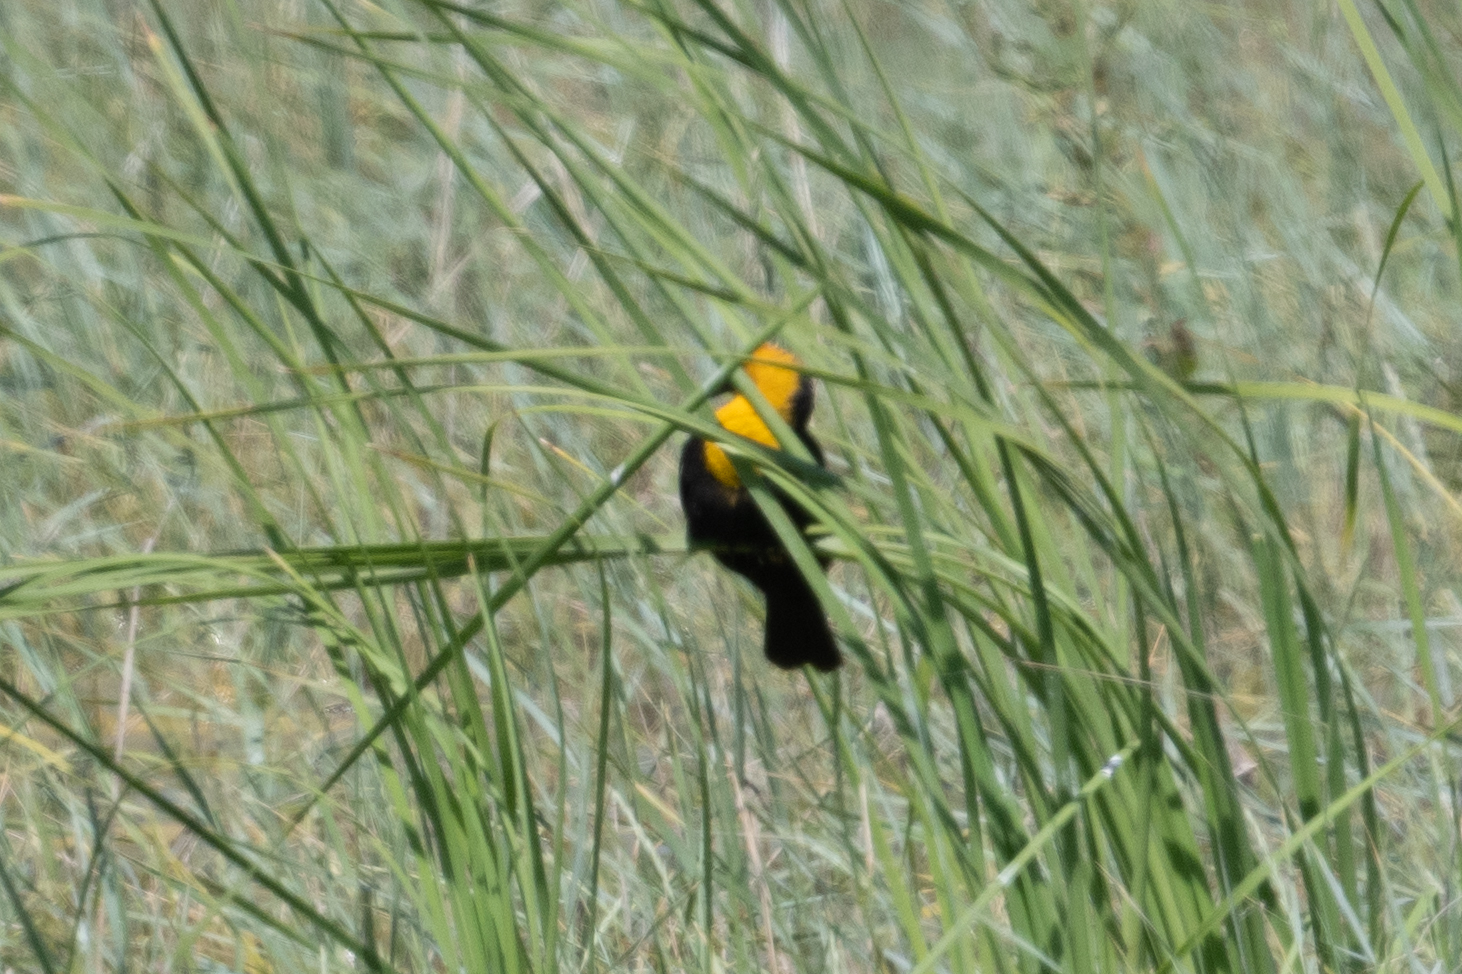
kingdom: Animalia
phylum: Chordata
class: Aves
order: Passeriformes
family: Icteridae
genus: Xanthocephalus
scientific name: Xanthocephalus xanthocephalus
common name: Yellow-headed blackbird
